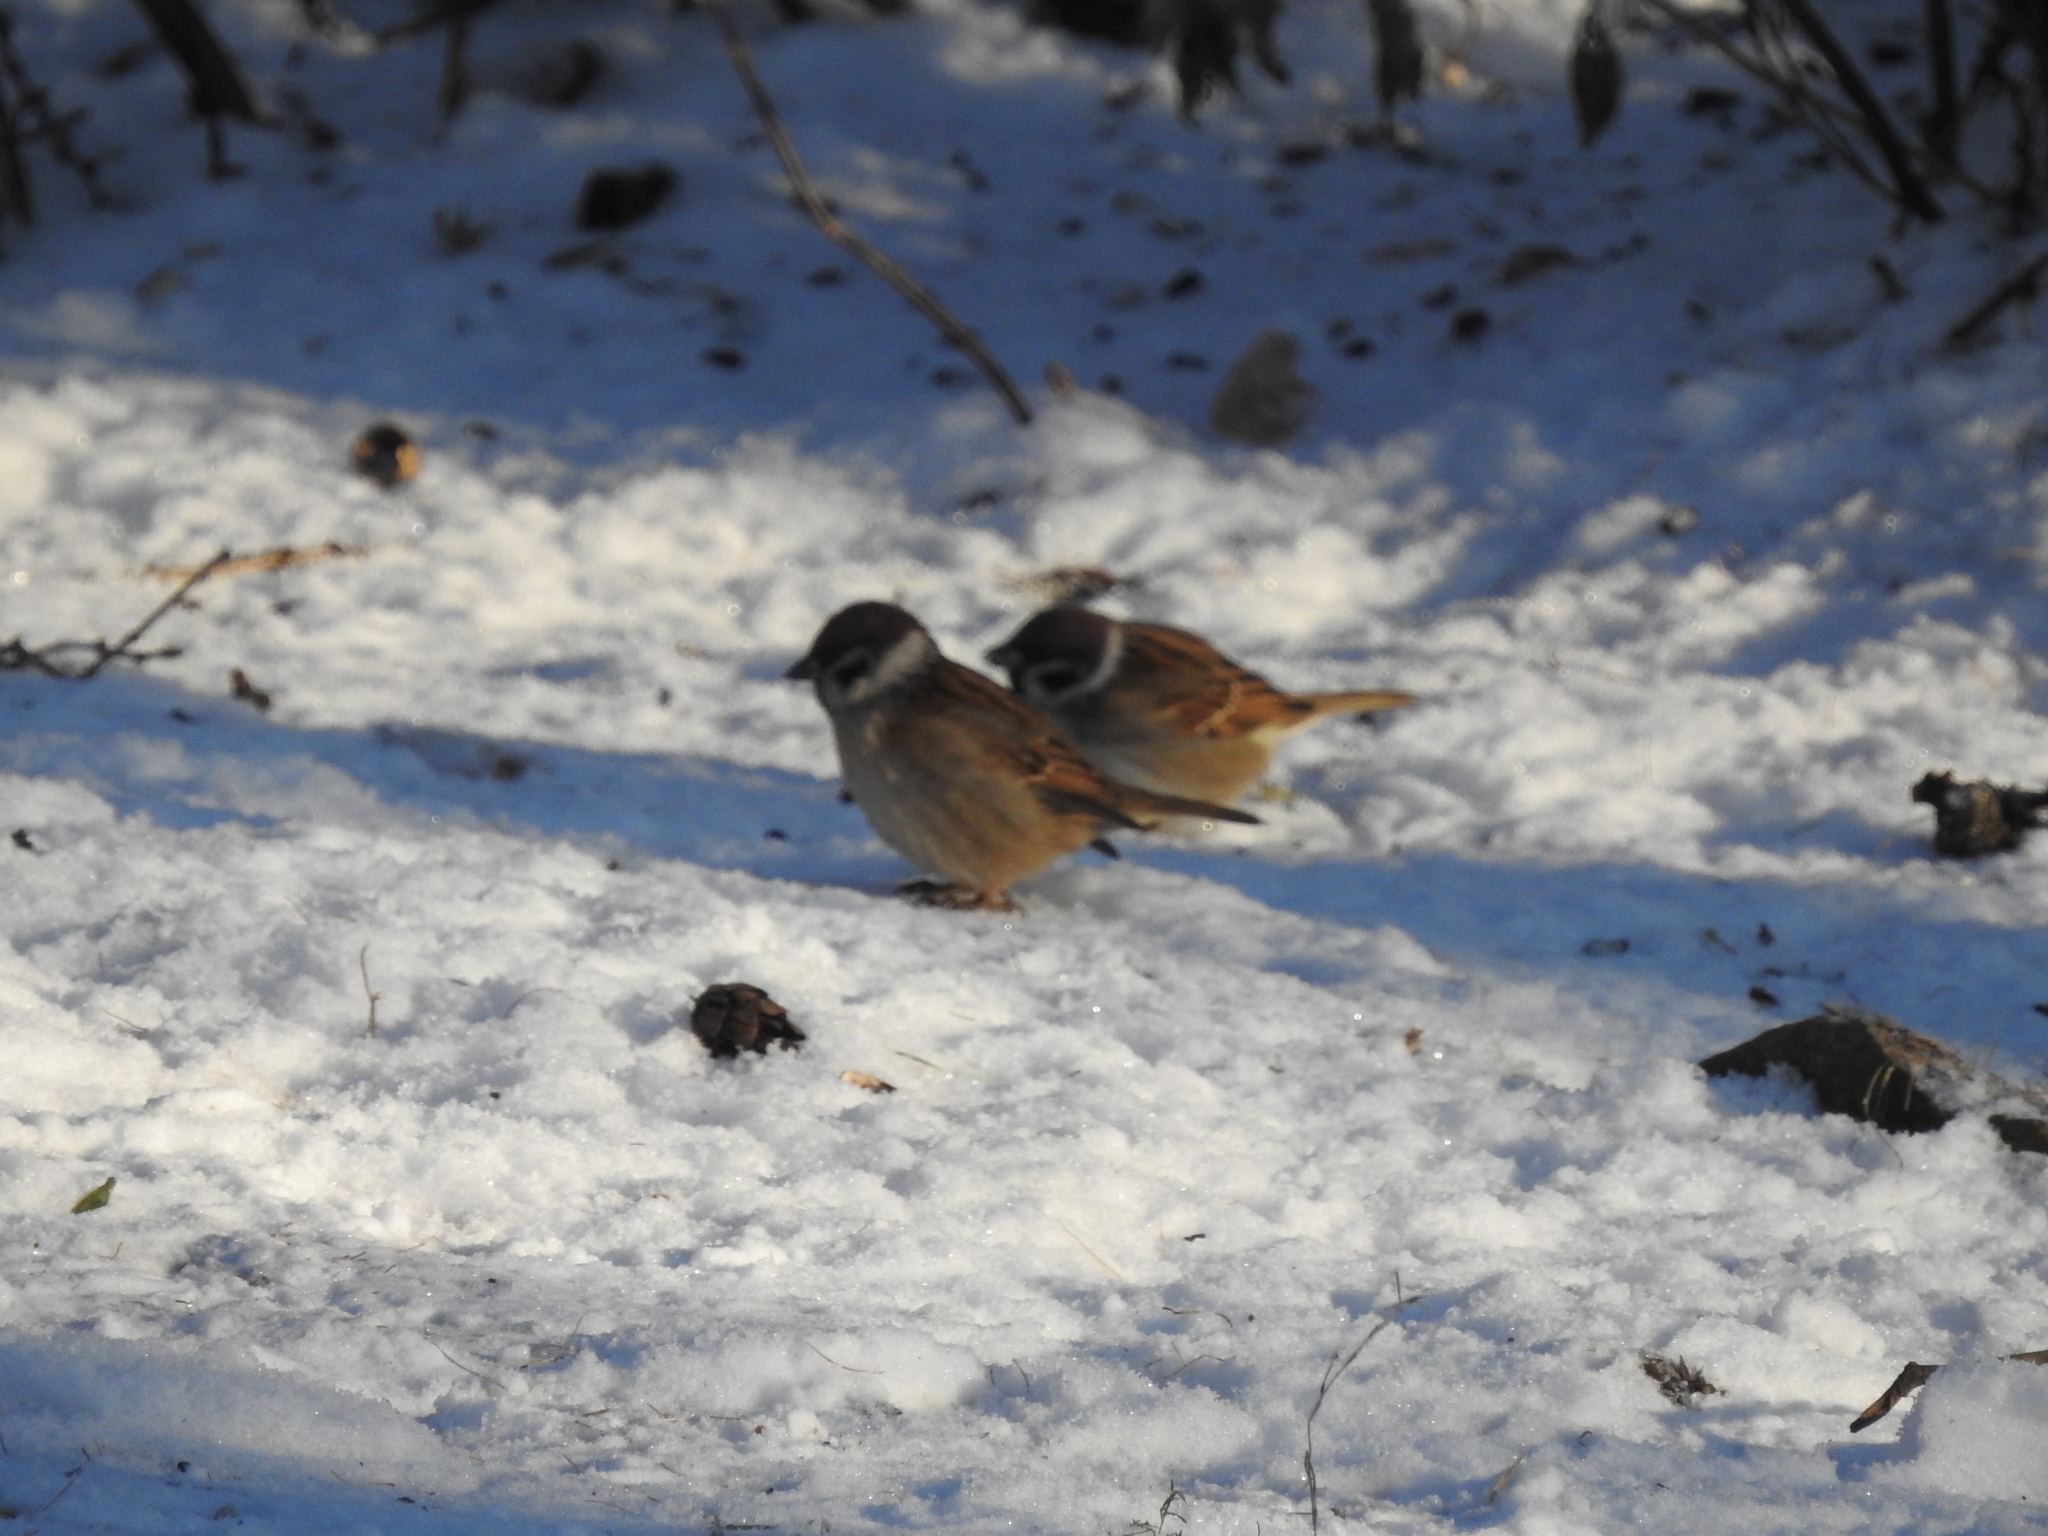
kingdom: Animalia
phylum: Chordata
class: Aves
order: Passeriformes
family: Passeridae
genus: Passer
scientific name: Passer montanus
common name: Eurasian tree sparrow
